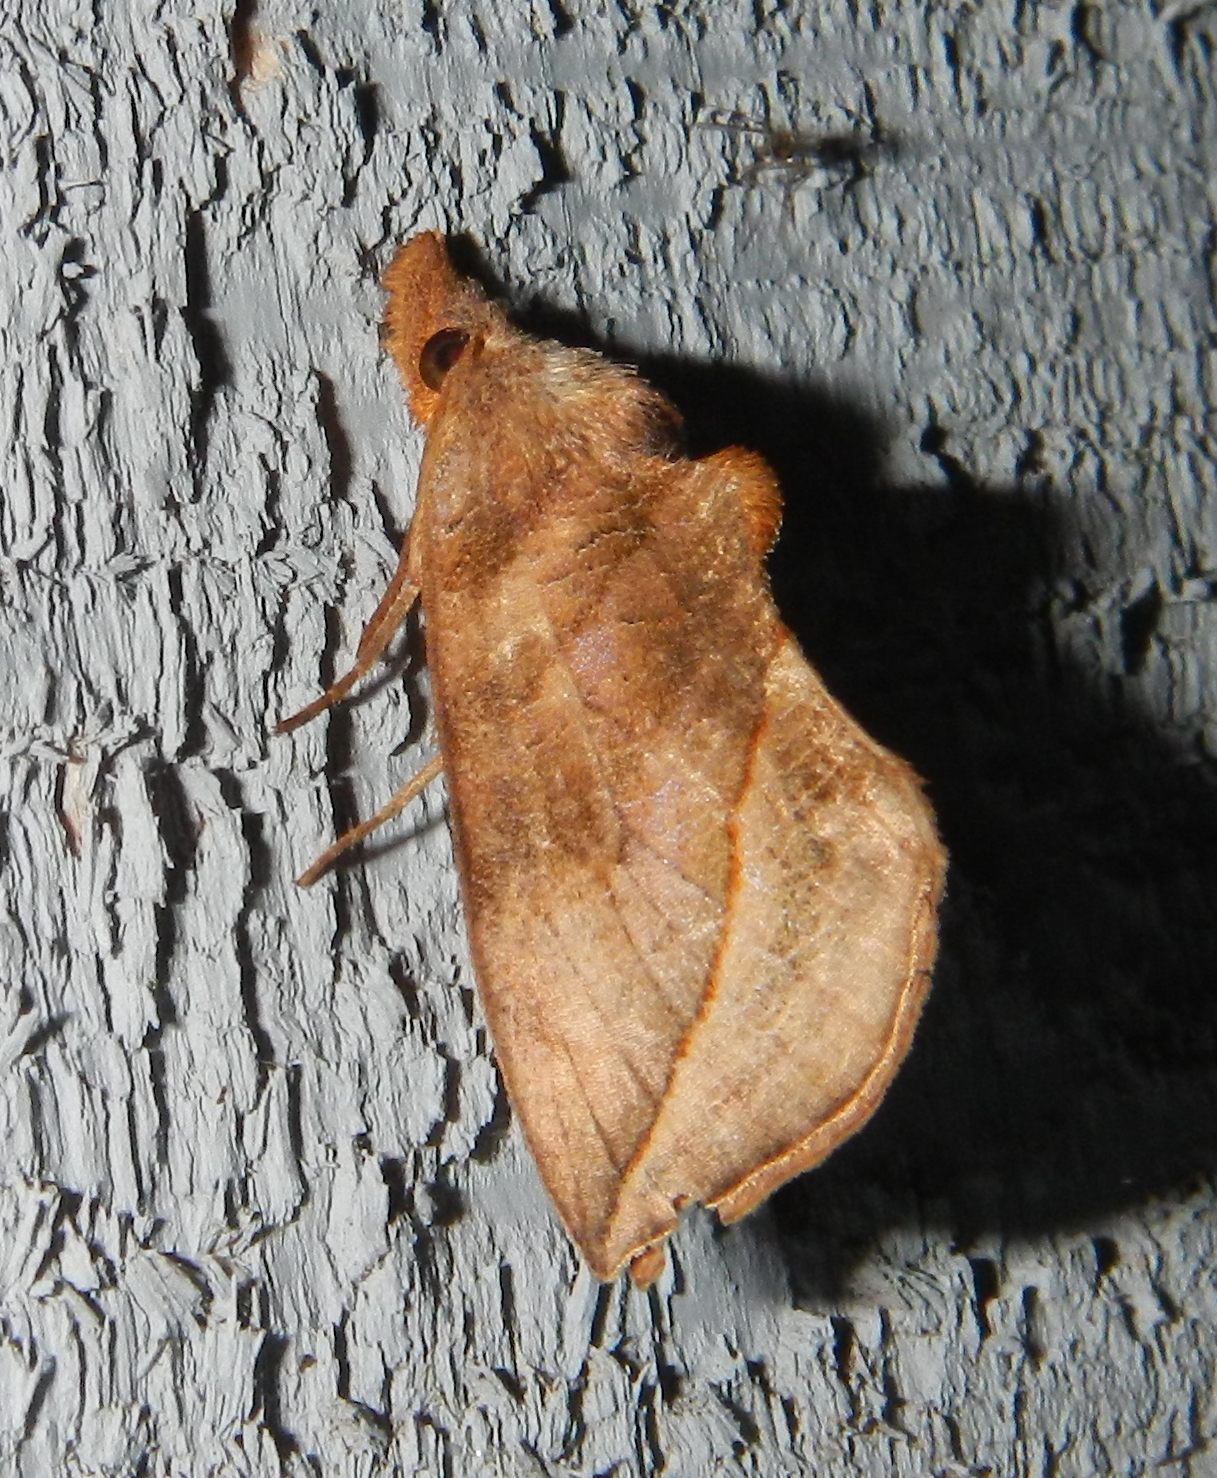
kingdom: Animalia
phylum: Arthropoda
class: Insecta
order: Lepidoptera
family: Erebidae
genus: Calyptra
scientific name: Calyptra canadensis
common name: Canadian owlet
